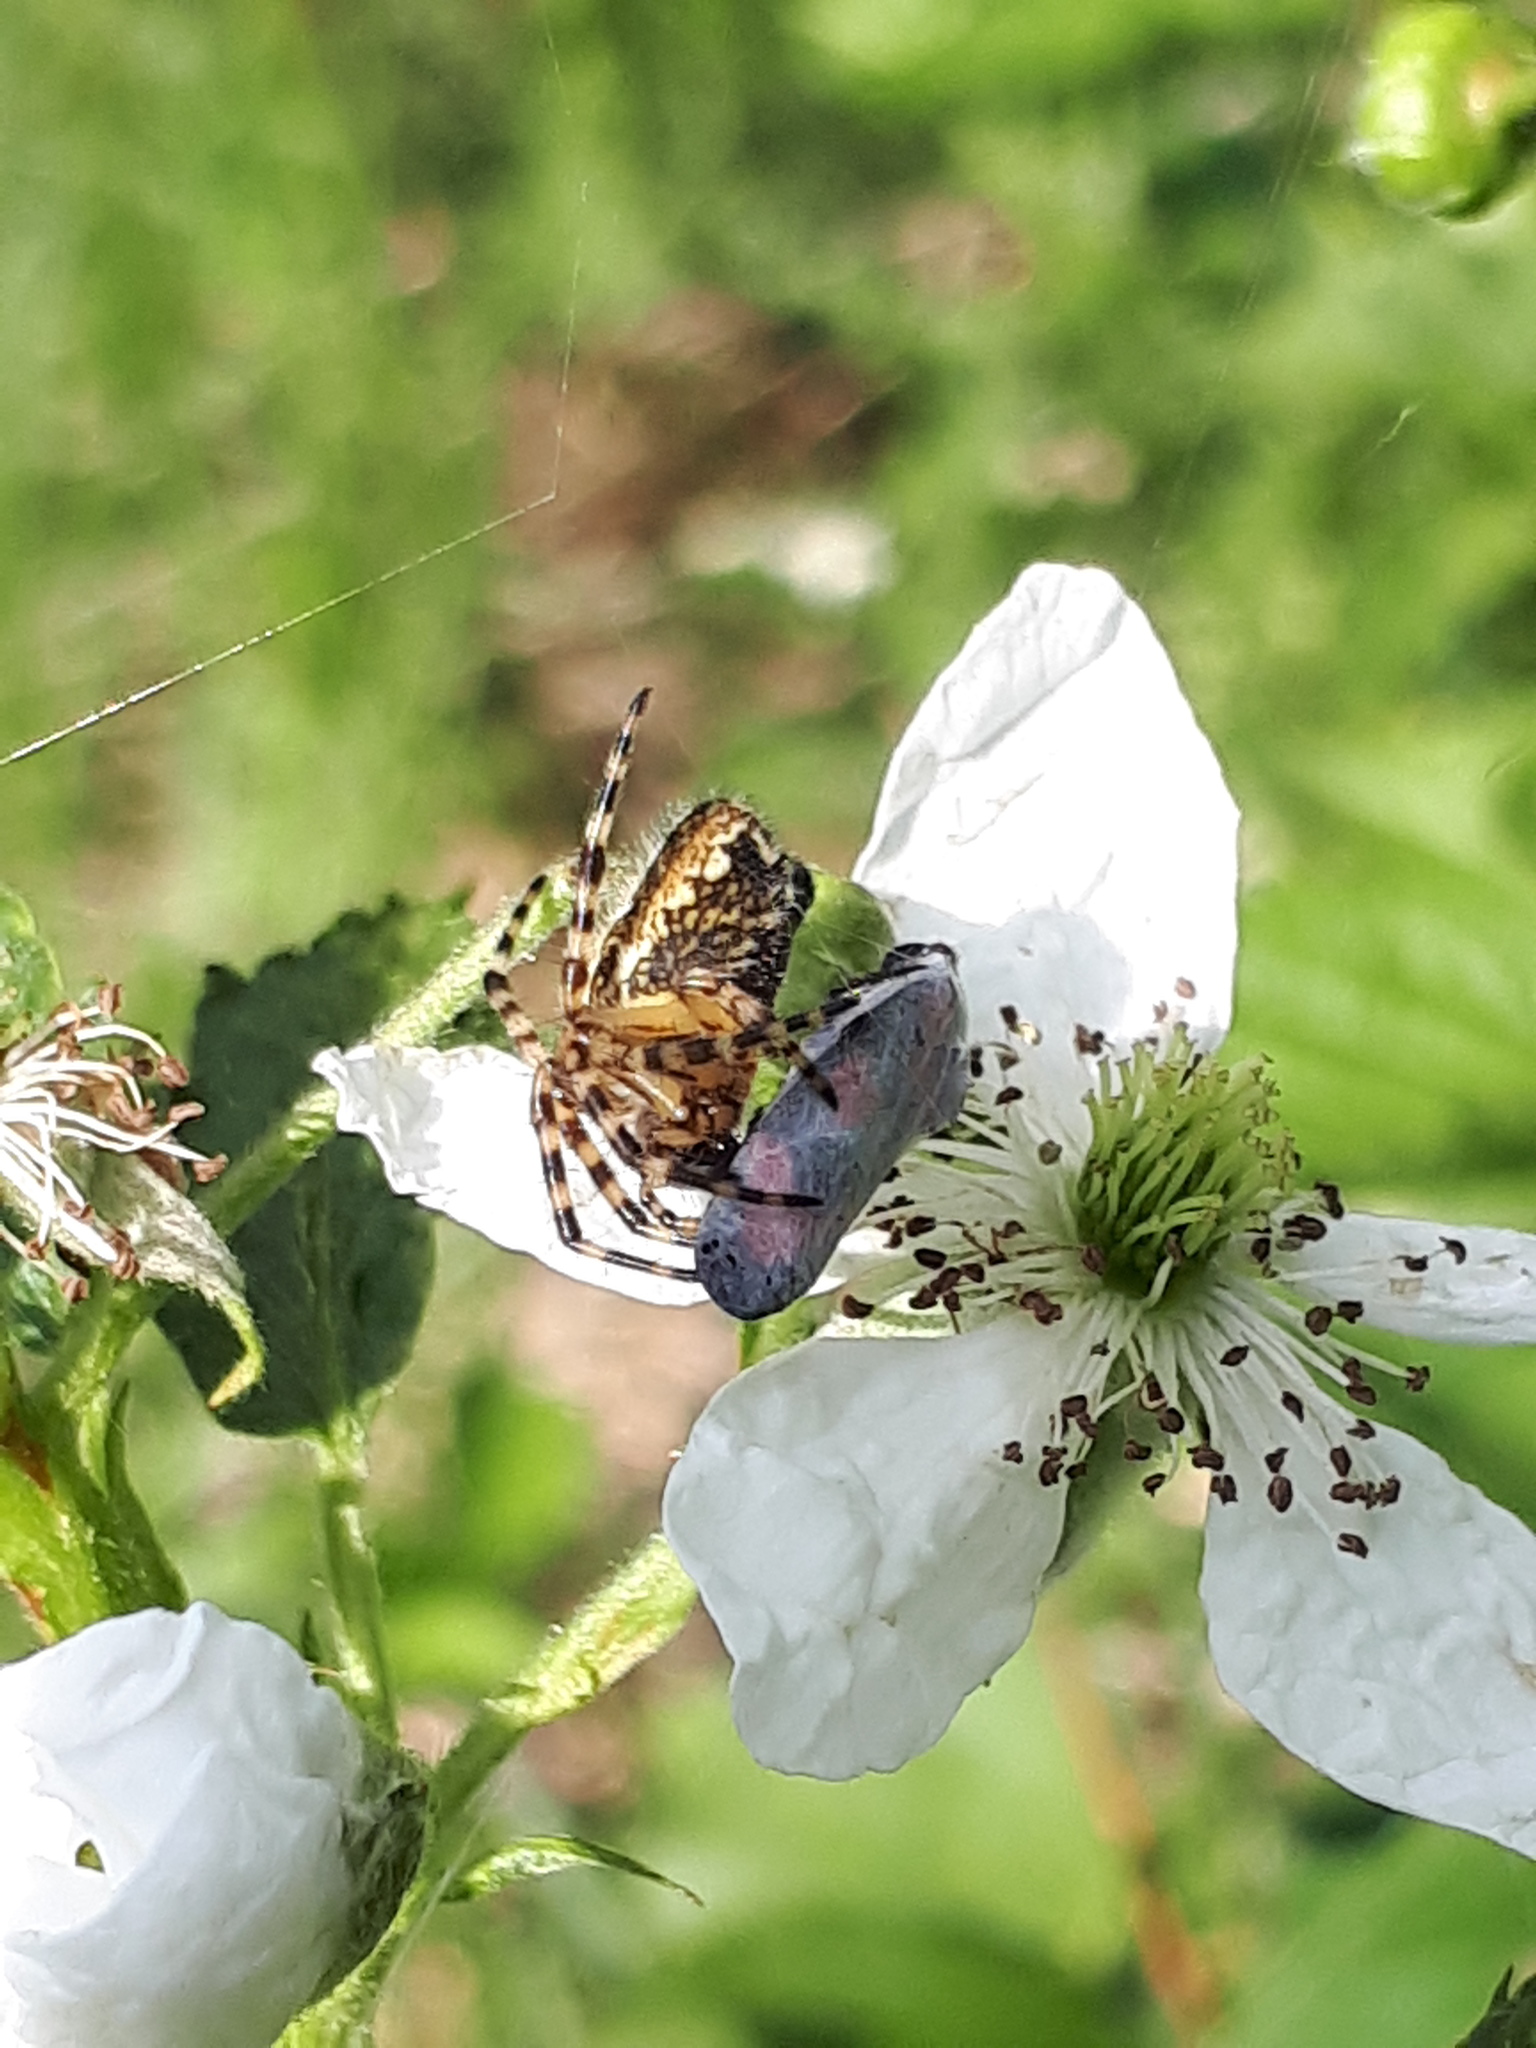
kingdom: Animalia
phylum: Arthropoda
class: Insecta
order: Hemiptera
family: Cercopidae
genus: Cercopis
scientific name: Cercopis vulnerata
